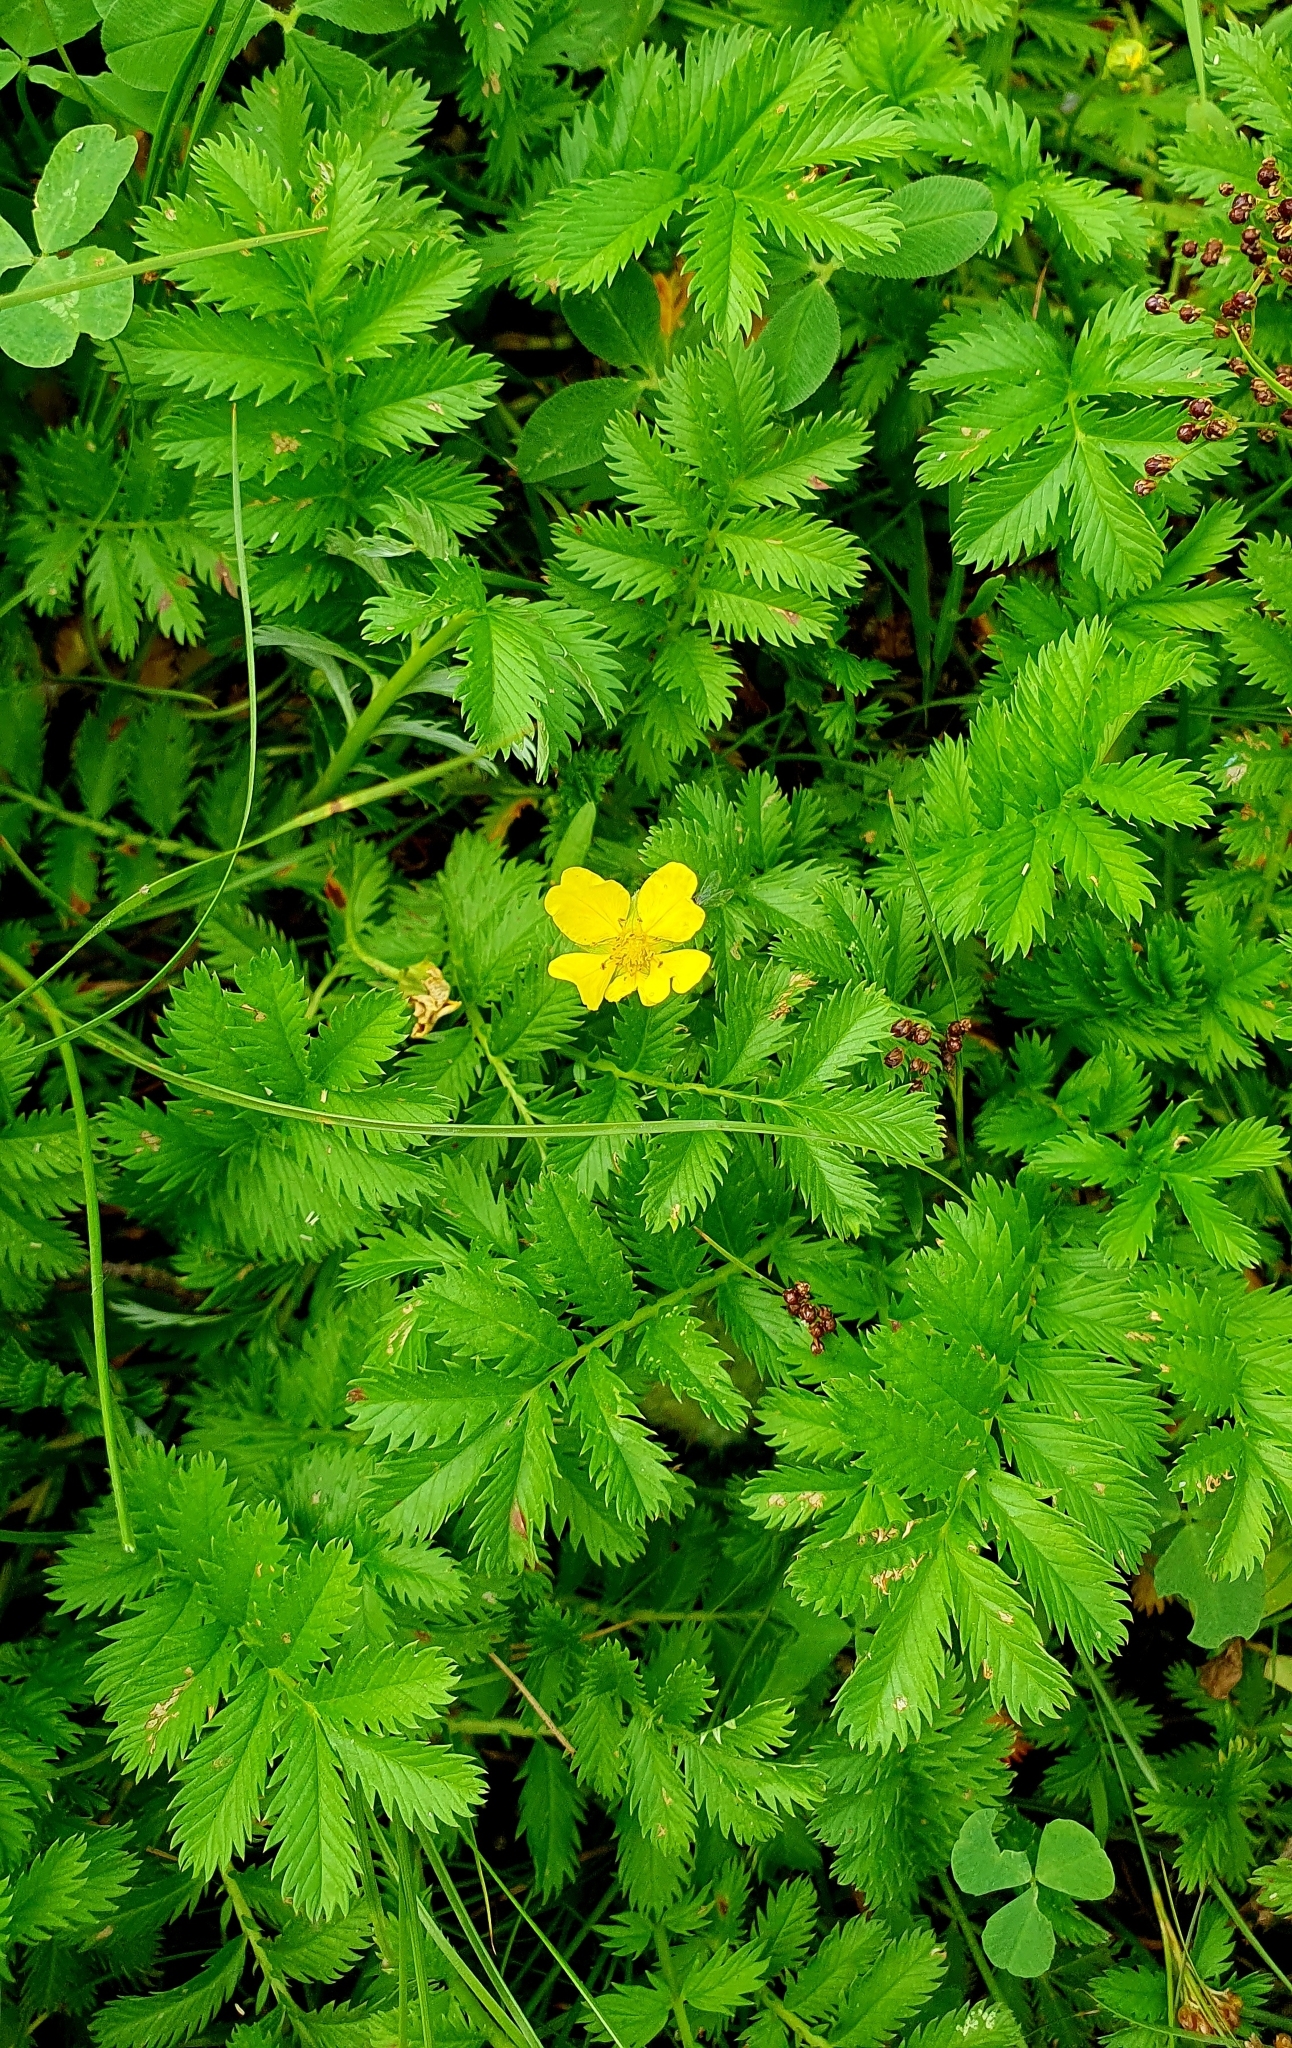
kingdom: Plantae
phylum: Tracheophyta
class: Magnoliopsida
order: Rosales
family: Rosaceae
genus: Argentina
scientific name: Argentina anserina
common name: Common silverweed
